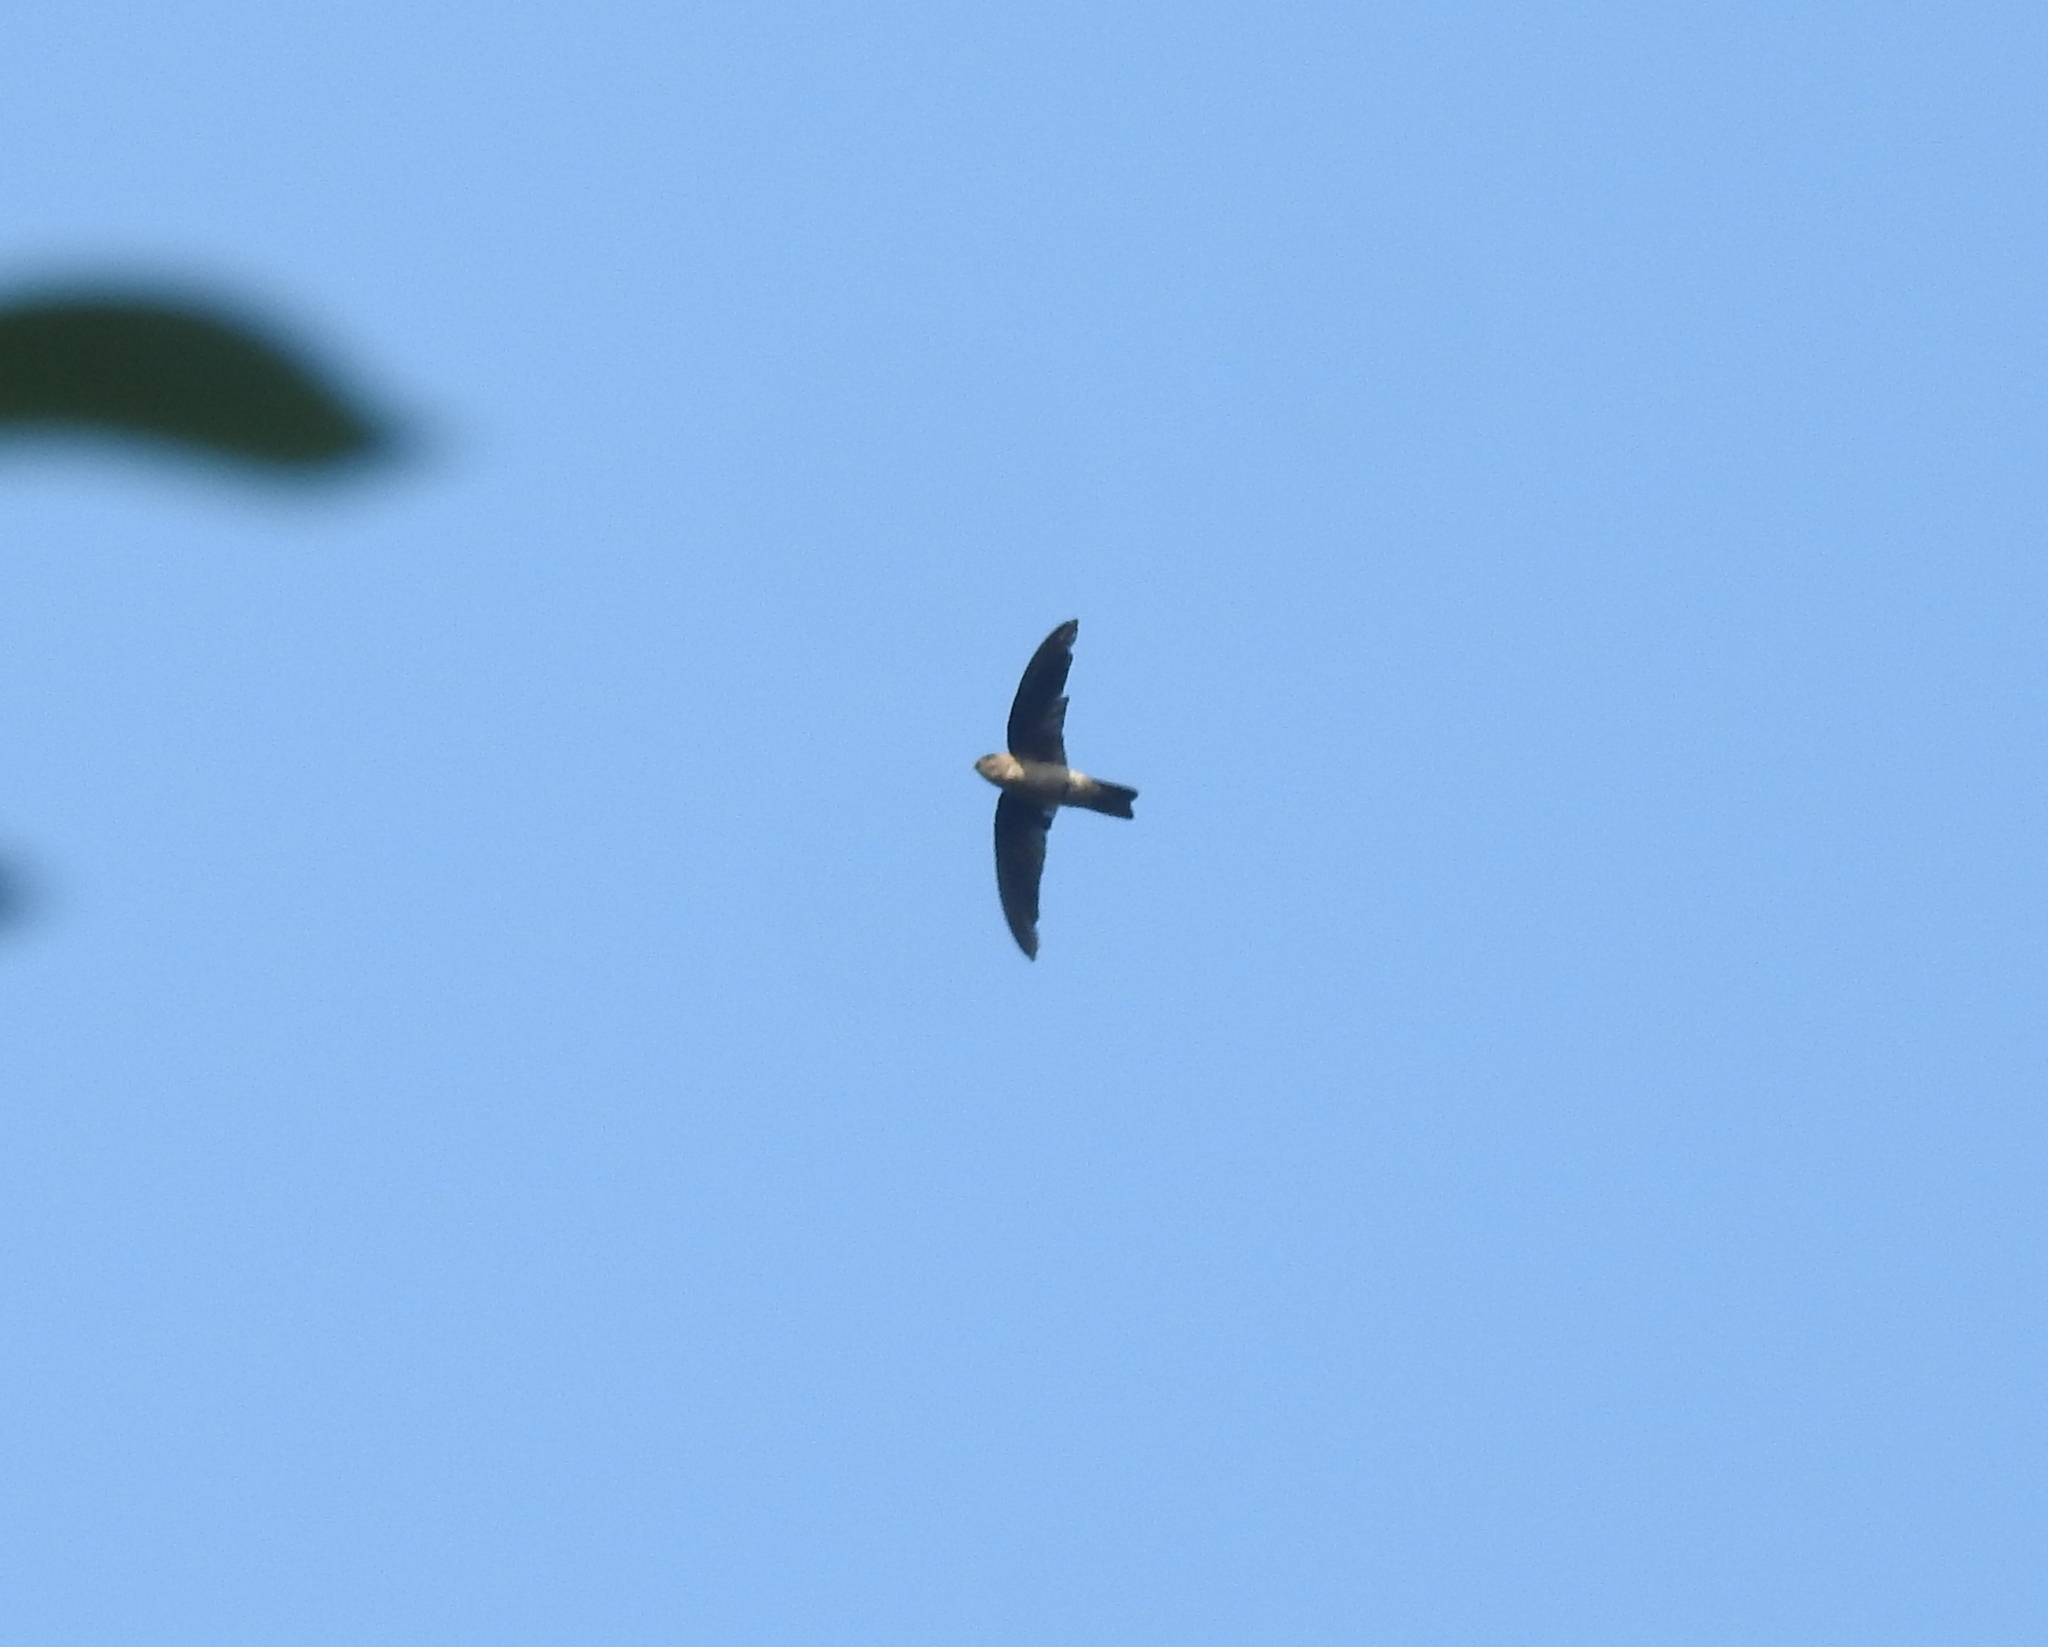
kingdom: Animalia
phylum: Chordata
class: Aves
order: Apodiformes
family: Apodidae
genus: Aerodramus
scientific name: Aerodramus
